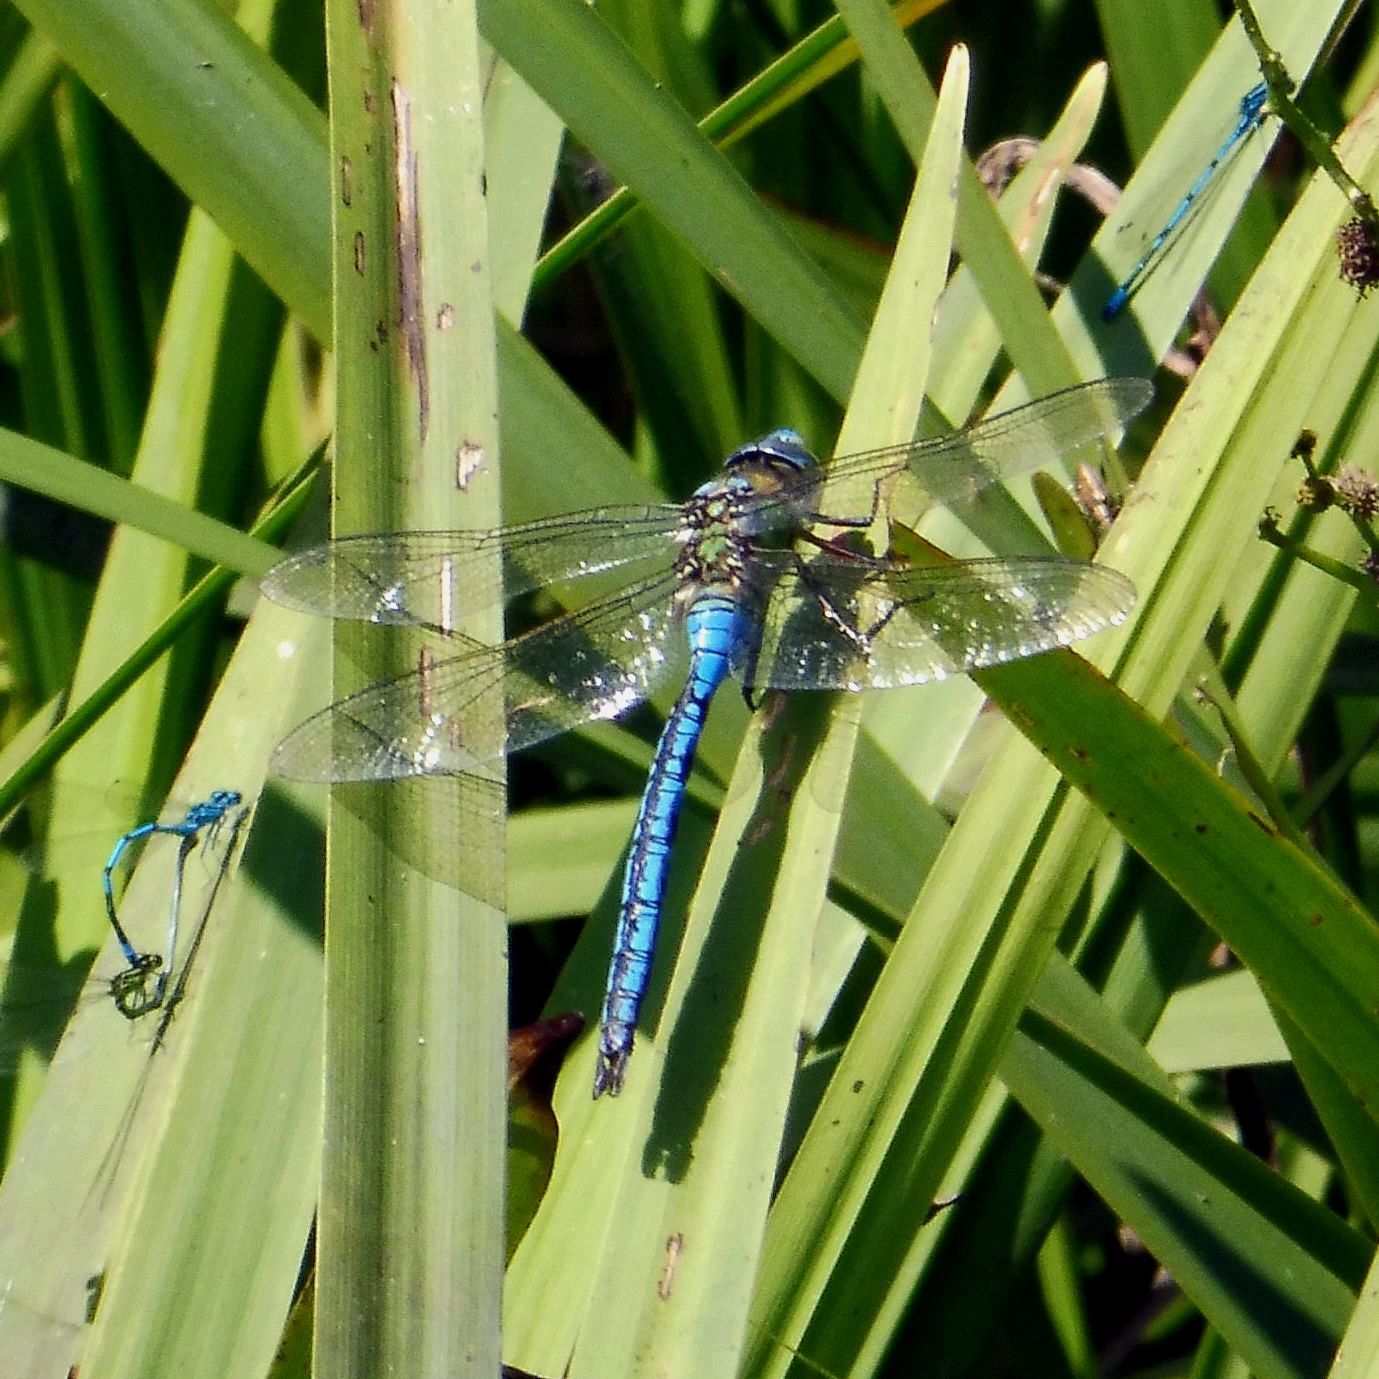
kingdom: Animalia
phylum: Arthropoda
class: Insecta
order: Odonata
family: Aeshnidae
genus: Anax
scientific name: Anax imperator
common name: Emperor dragonfly
